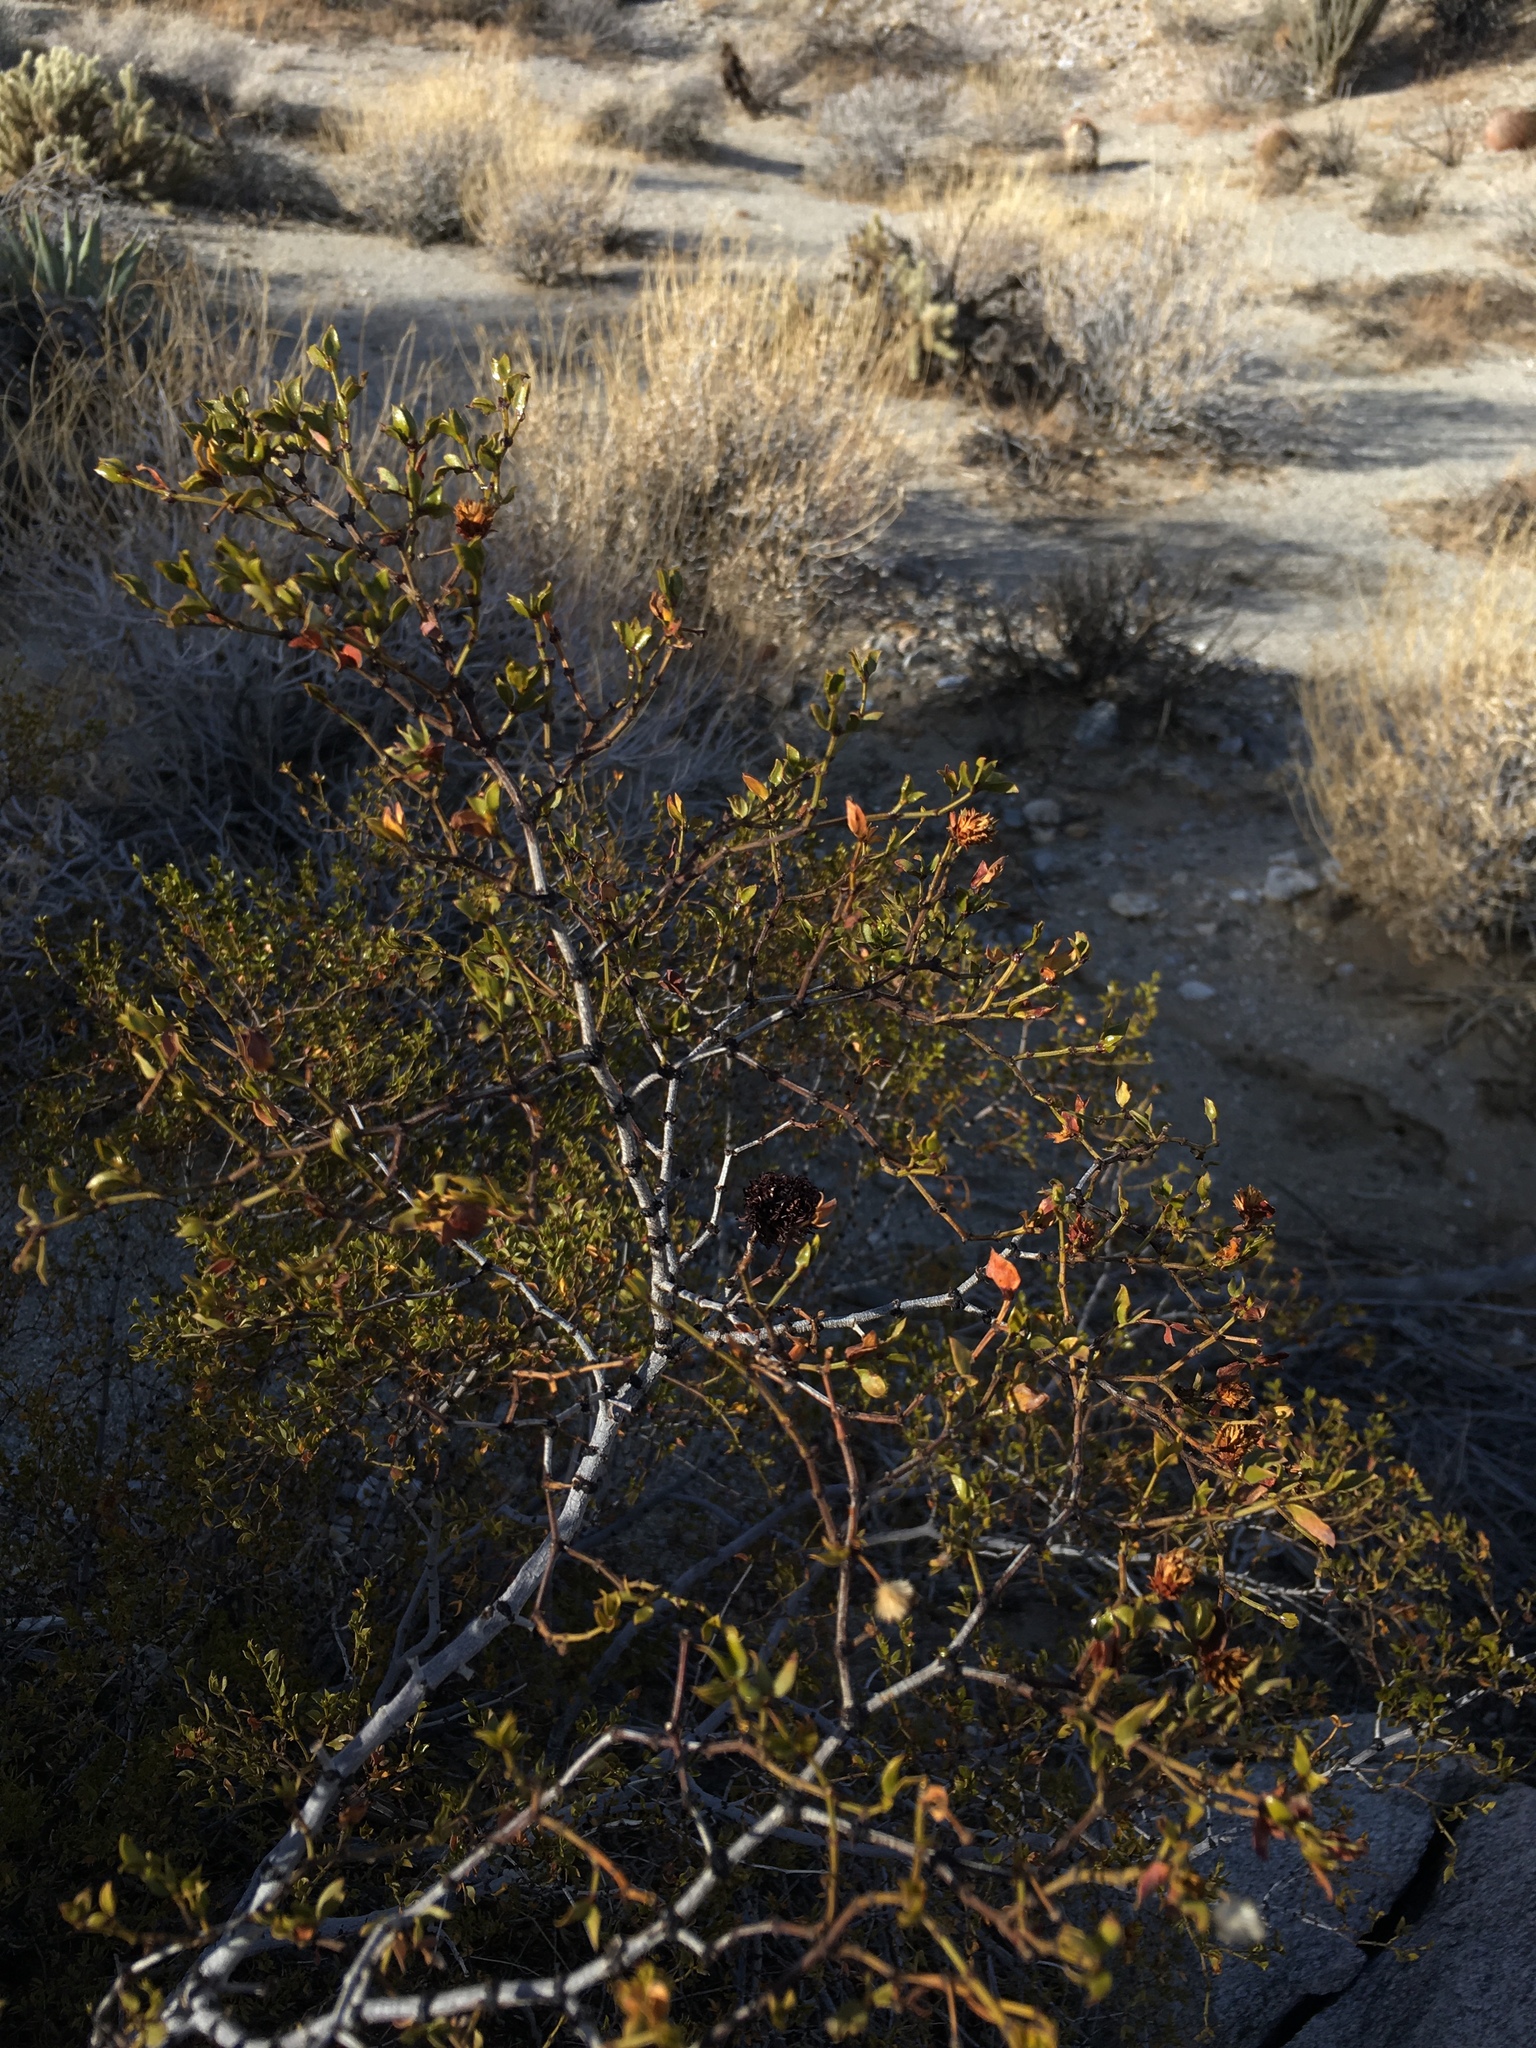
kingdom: Plantae
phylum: Tracheophyta
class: Magnoliopsida
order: Zygophyllales
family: Zygophyllaceae
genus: Larrea
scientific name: Larrea tridentata
